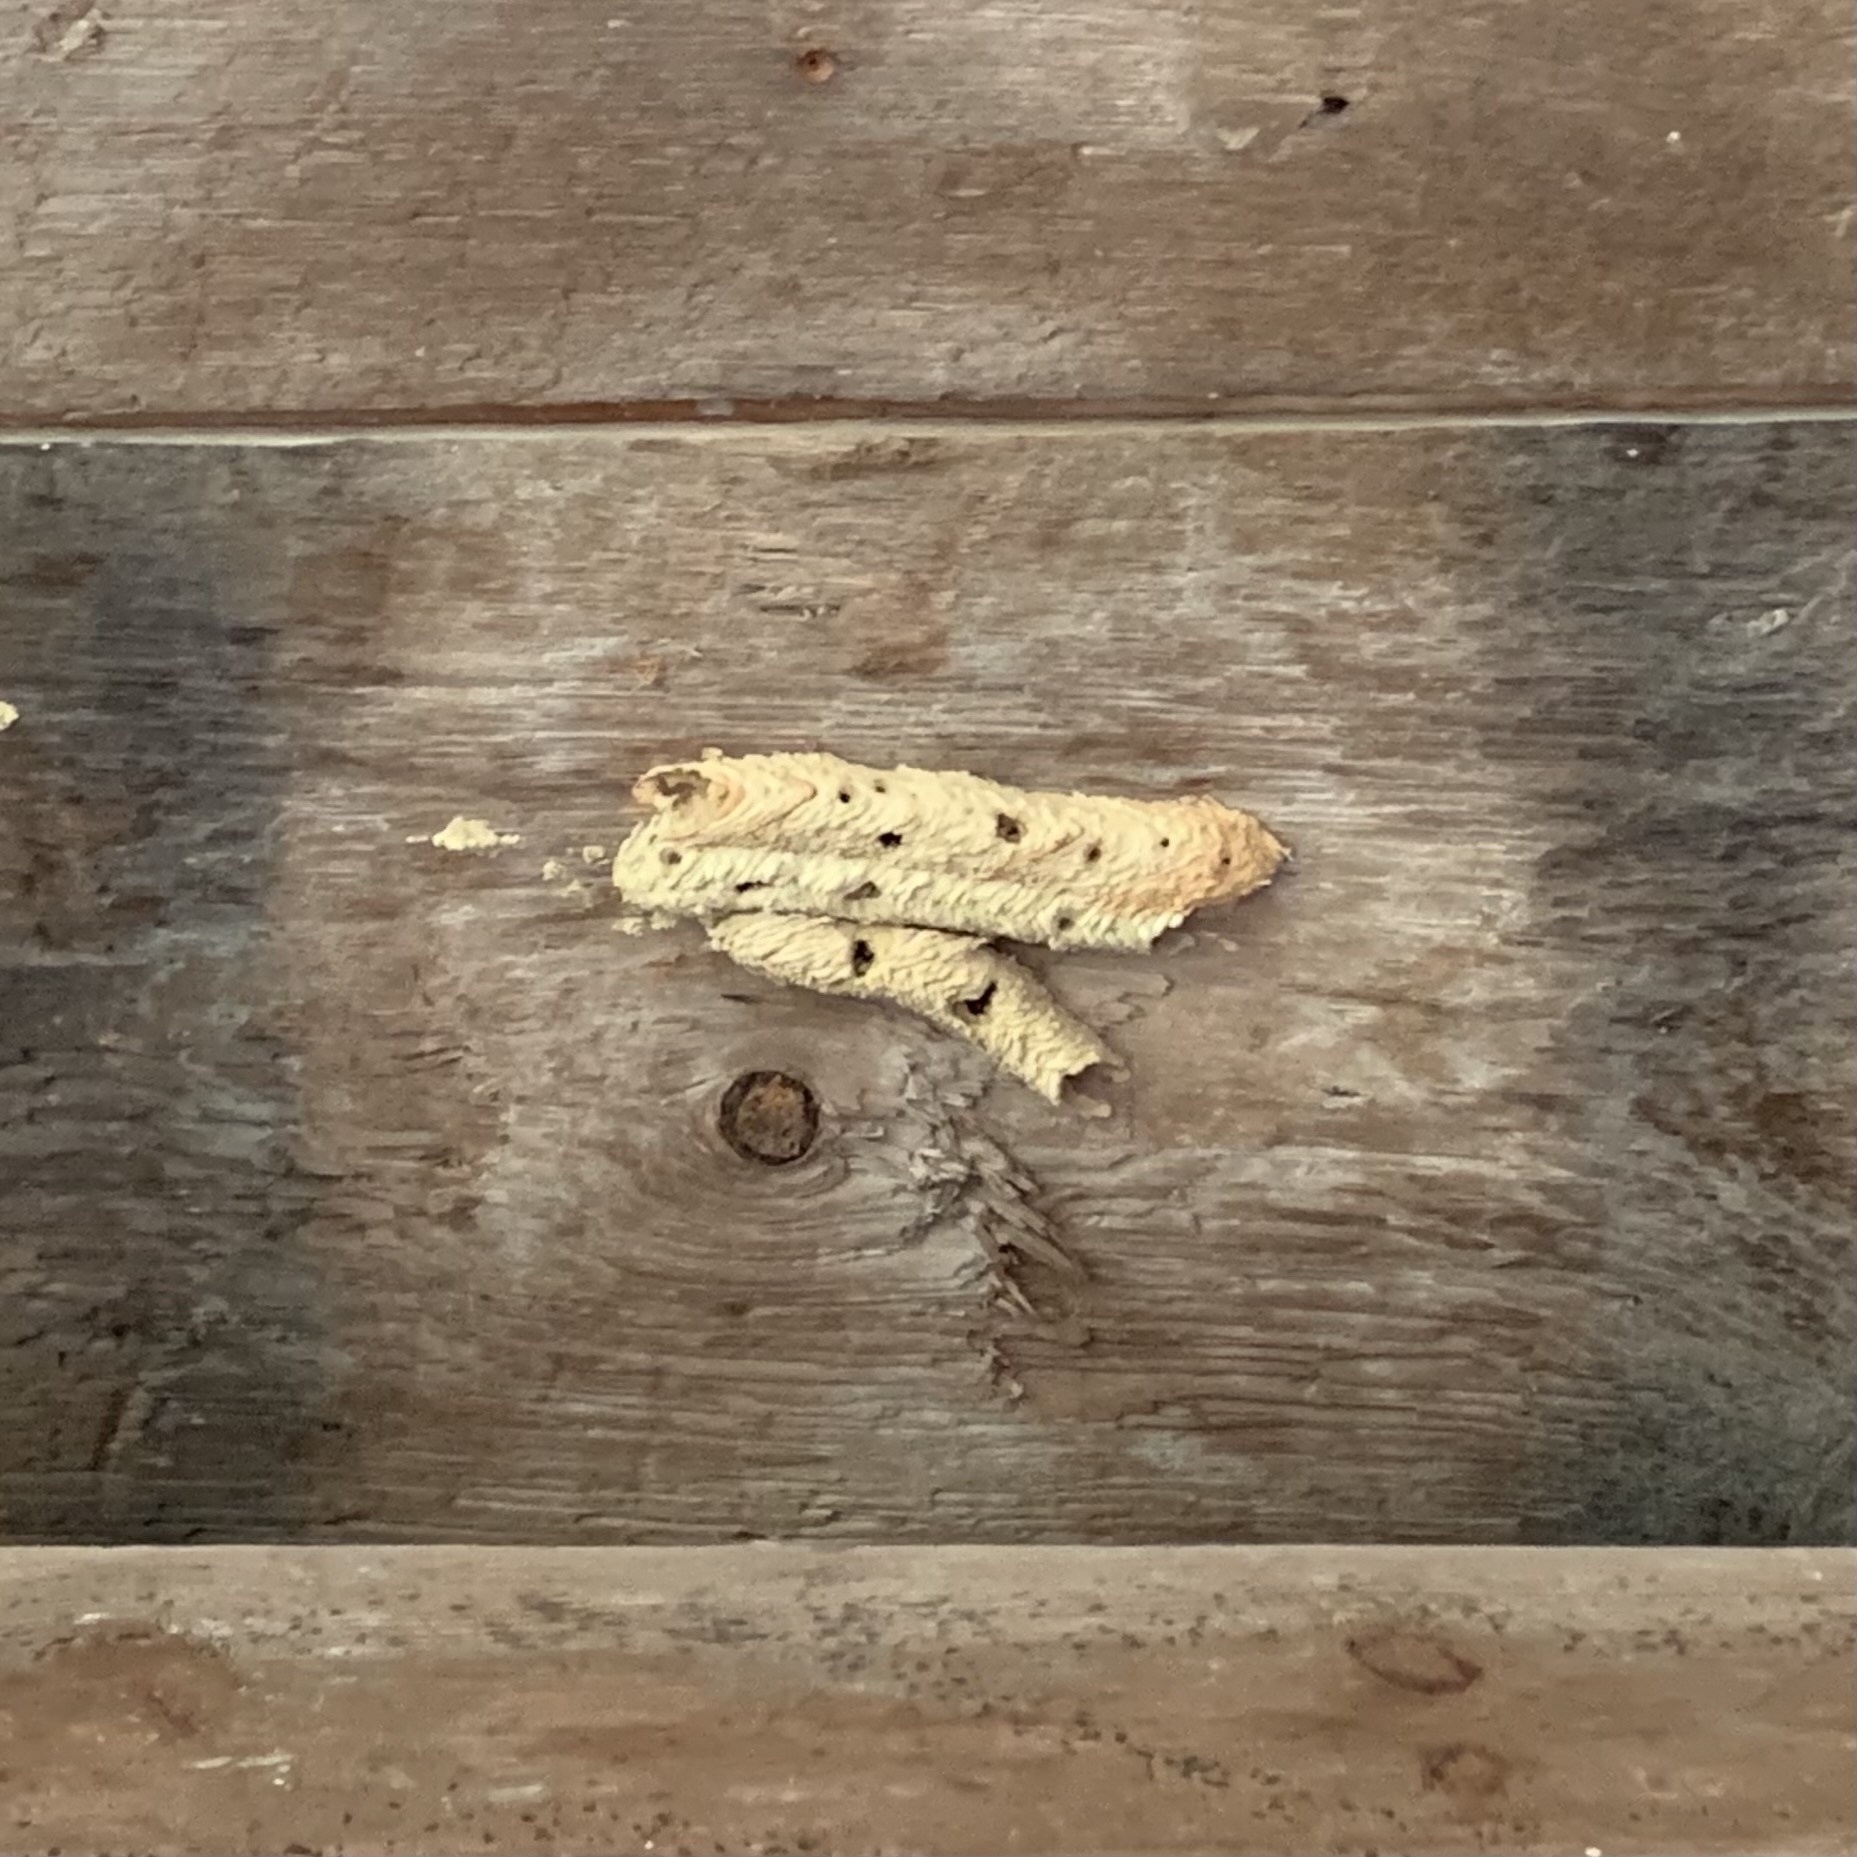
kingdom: Animalia
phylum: Arthropoda
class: Insecta
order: Hymenoptera
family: Crabronidae
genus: Trypoxylon
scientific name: Trypoxylon politum
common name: Organ-pipe mud-dauber wasp
